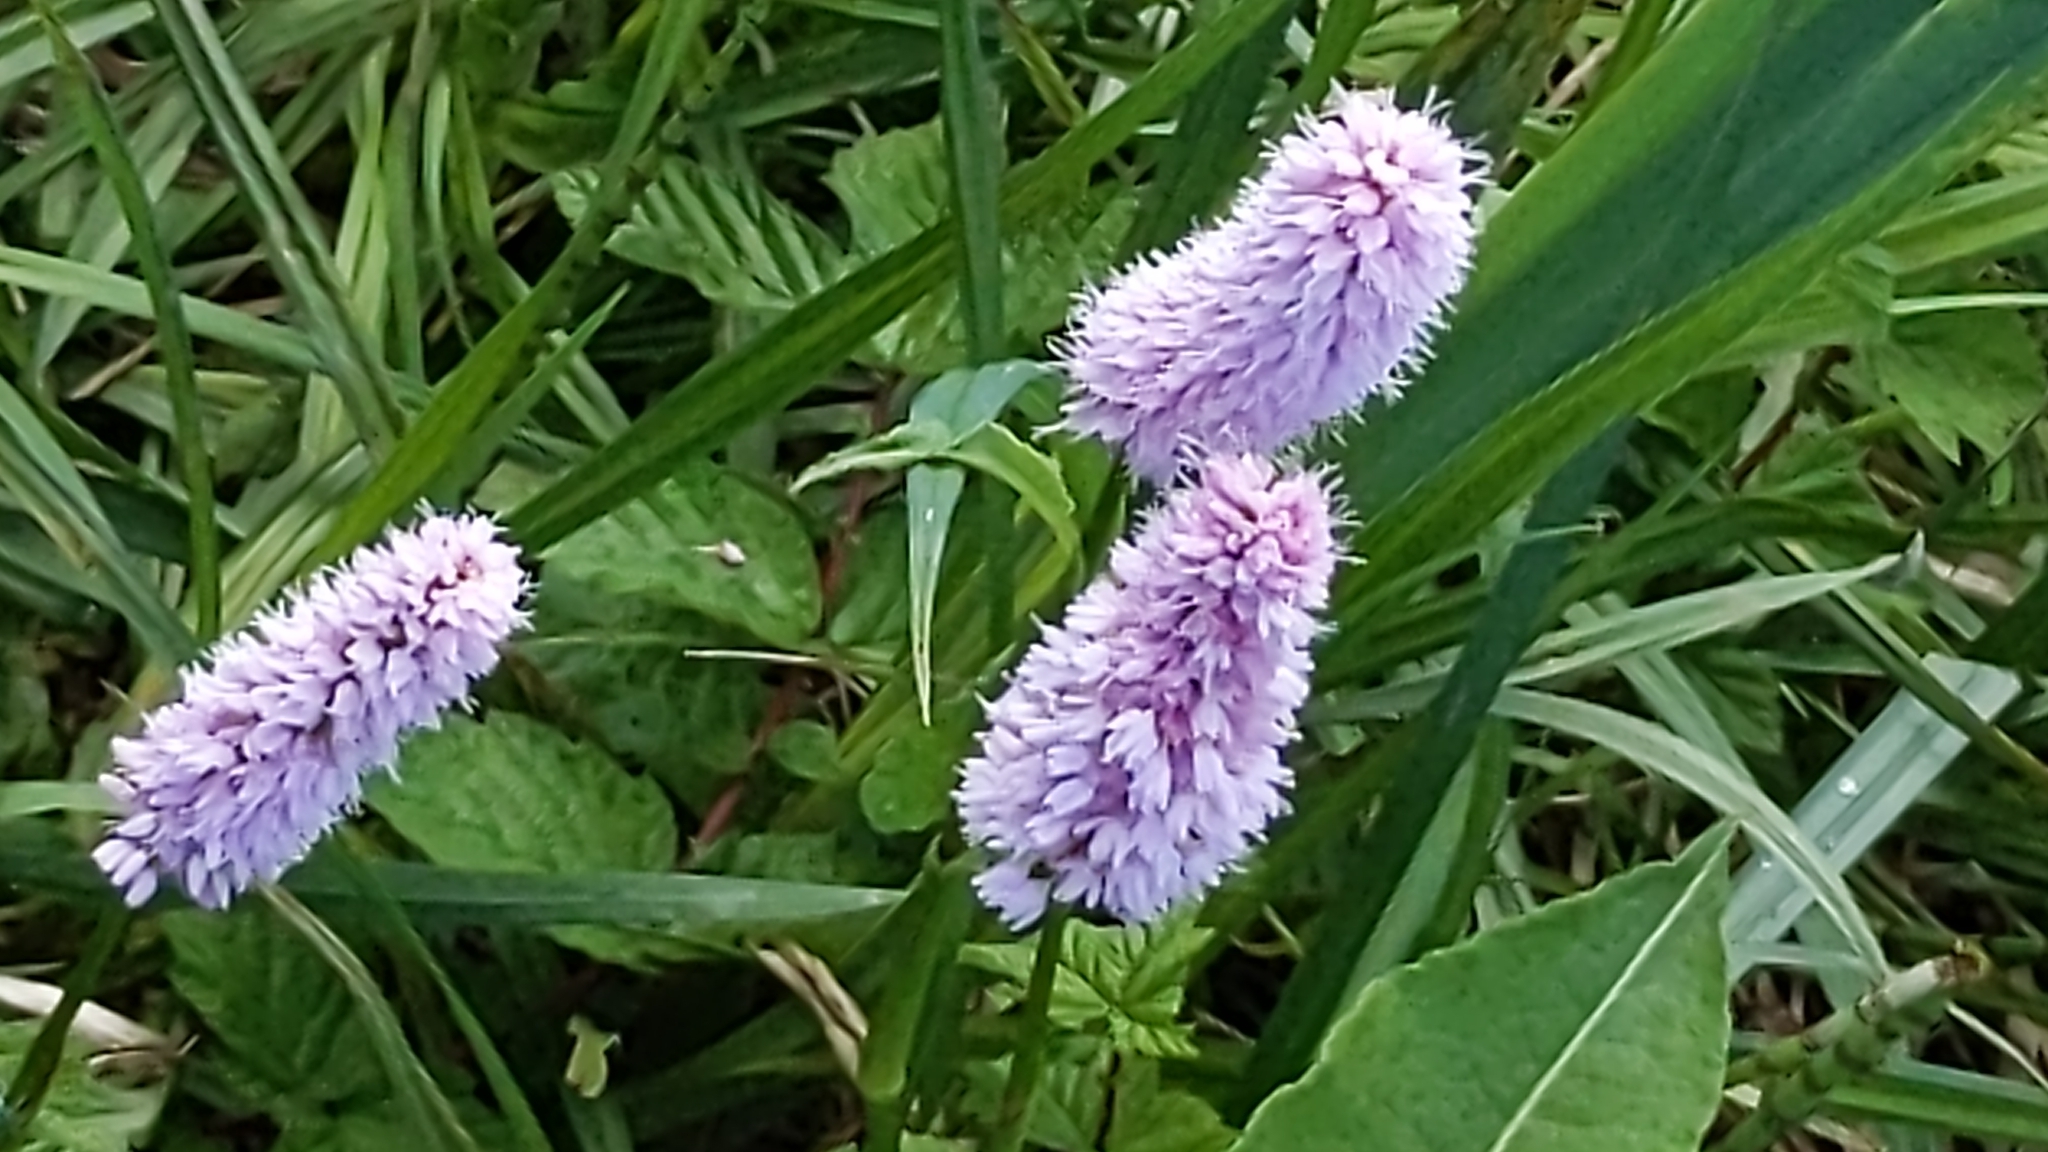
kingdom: Plantae
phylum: Tracheophyta
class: Magnoliopsida
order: Caryophyllales
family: Polygonaceae
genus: Bistorta
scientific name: Bistorta officinalis
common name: Common bistort
